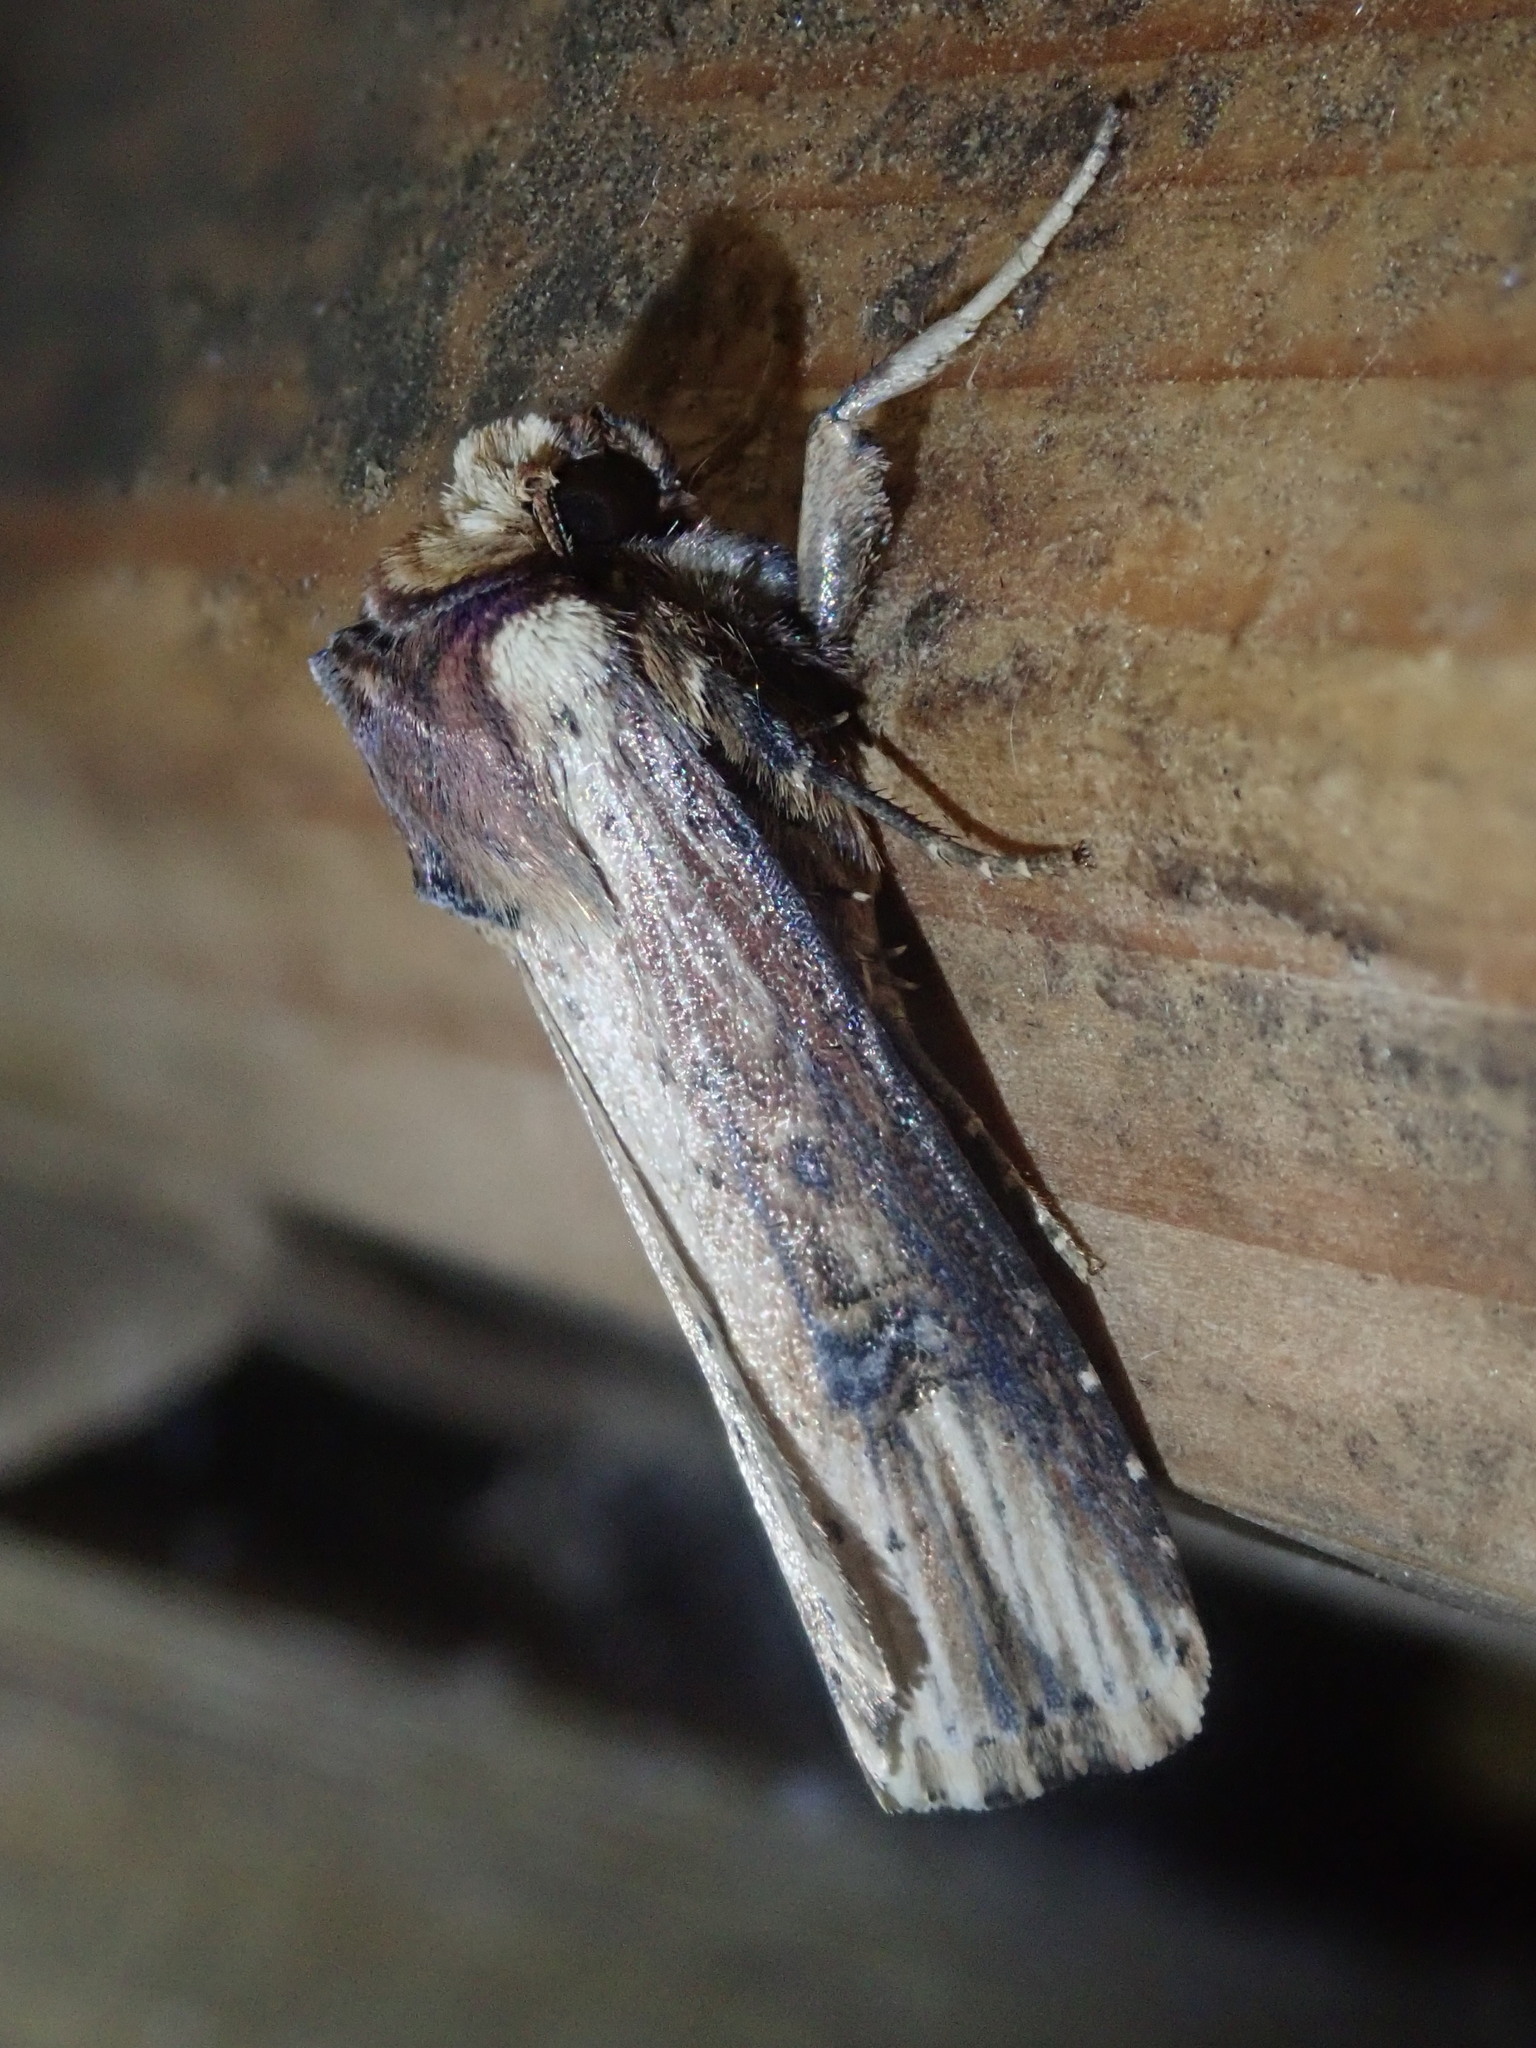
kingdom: Animalia
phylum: Arthropoda
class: Insecta
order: Lepidoptera
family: Noctuidae
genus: Axylia
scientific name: Axylia putris
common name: Flame
